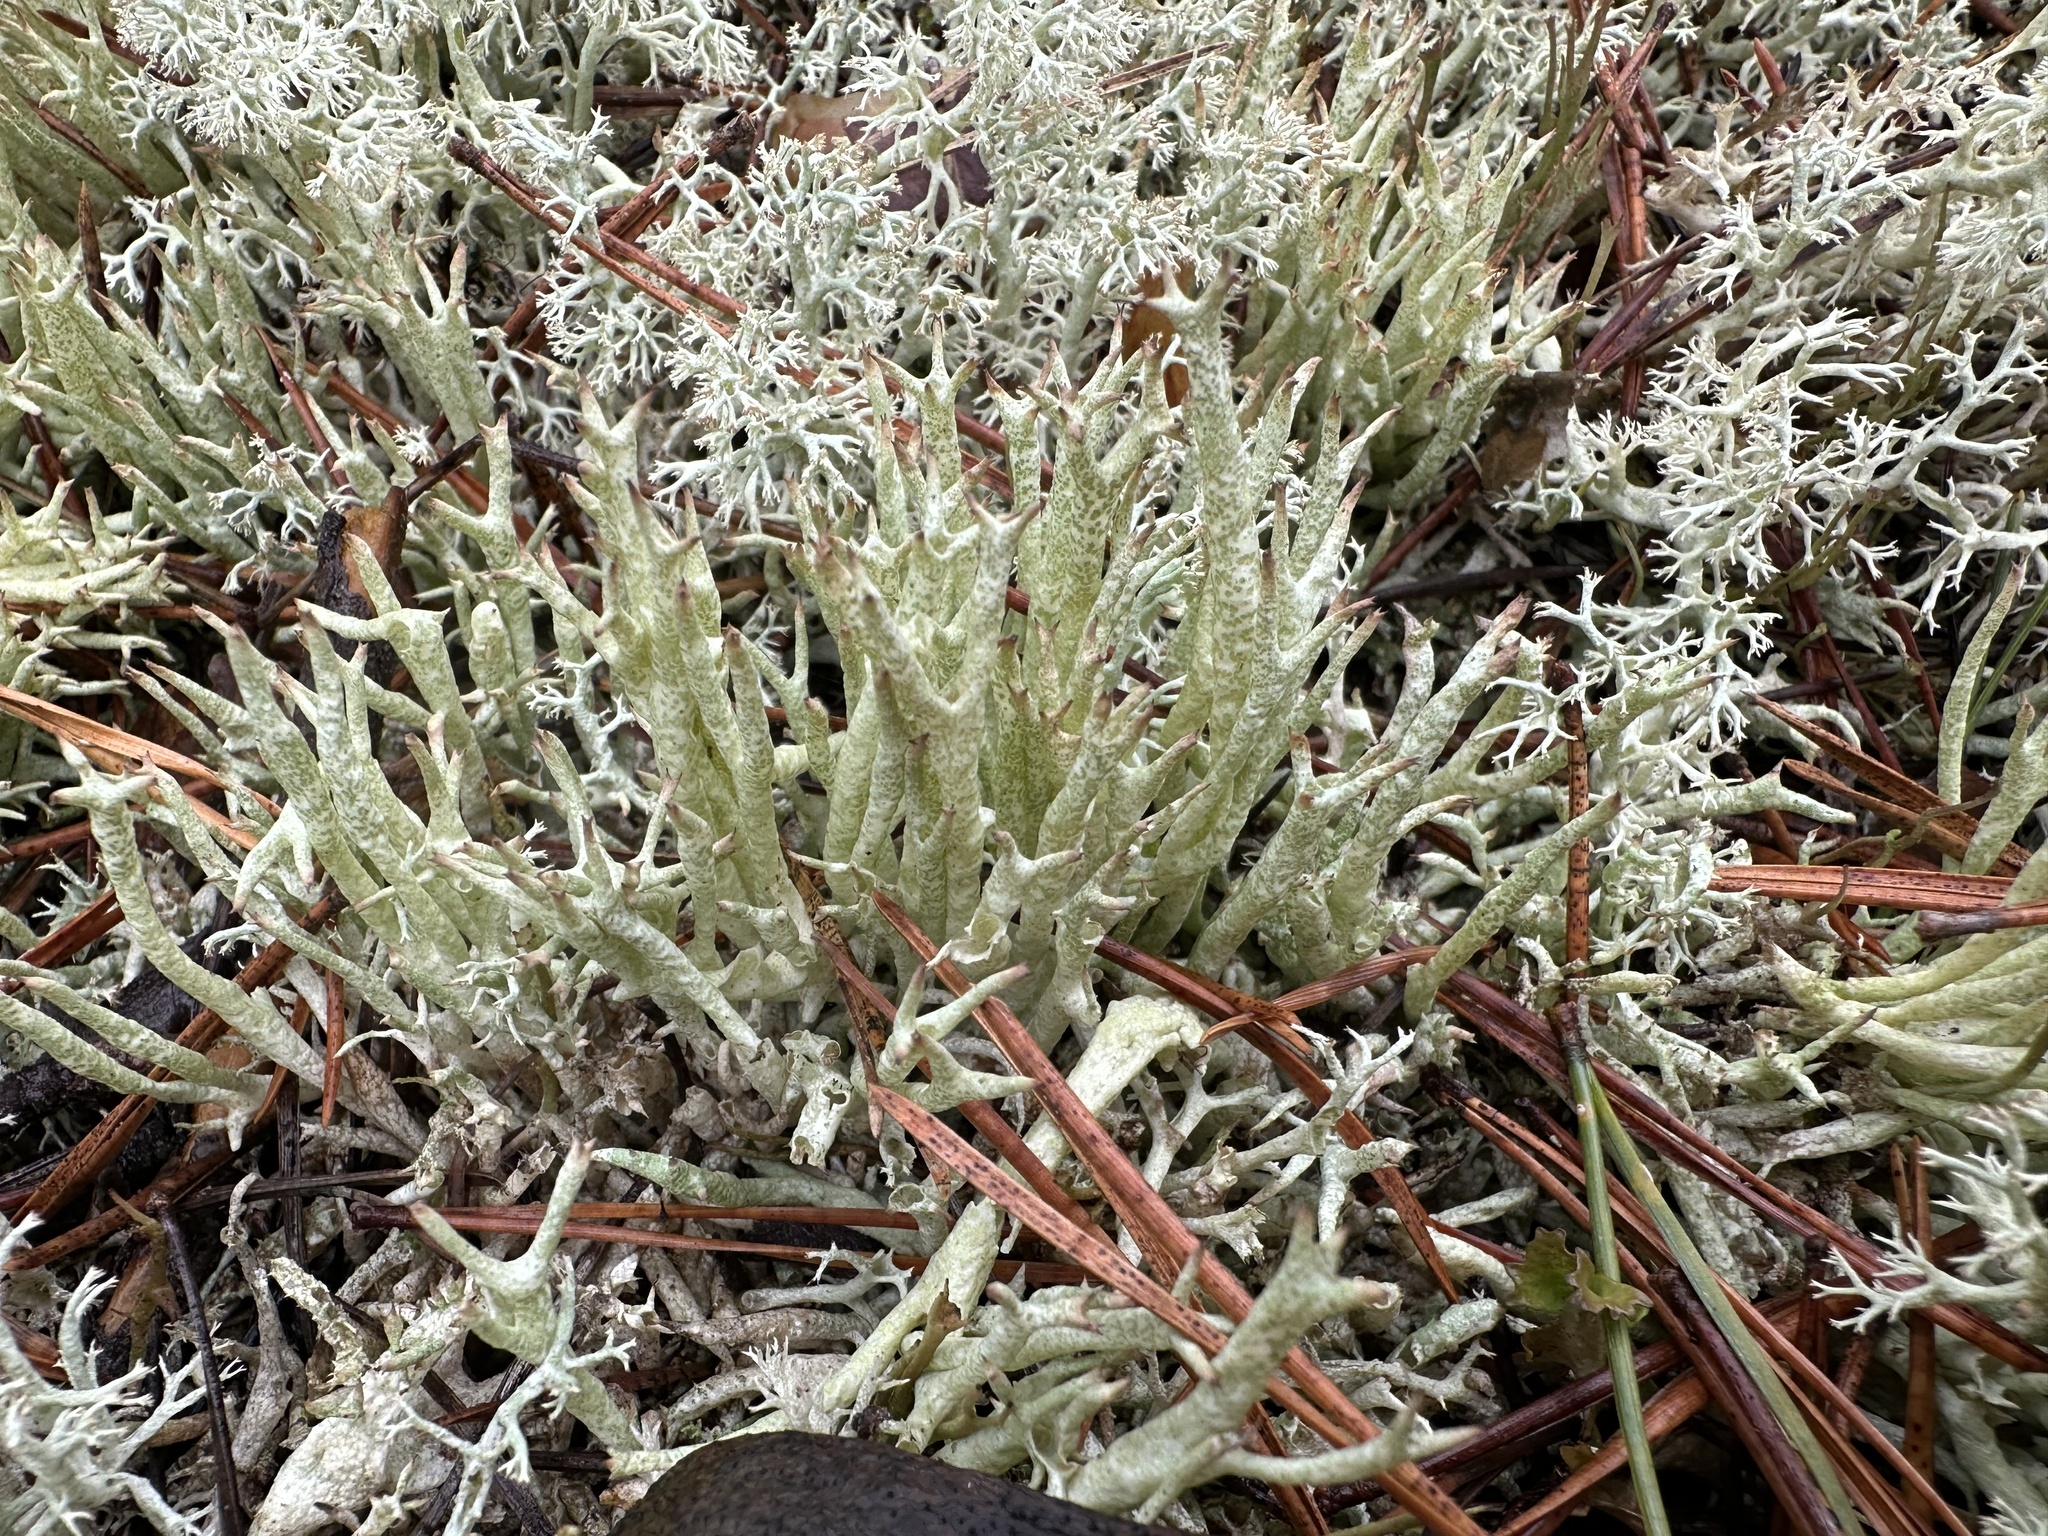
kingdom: Fungi
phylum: Ascomycota
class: Lecanoromycetes
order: Lecanorales
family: Cladoniaceae
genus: Cladonia
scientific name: Cladonia uncialis
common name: Thorn lichen
